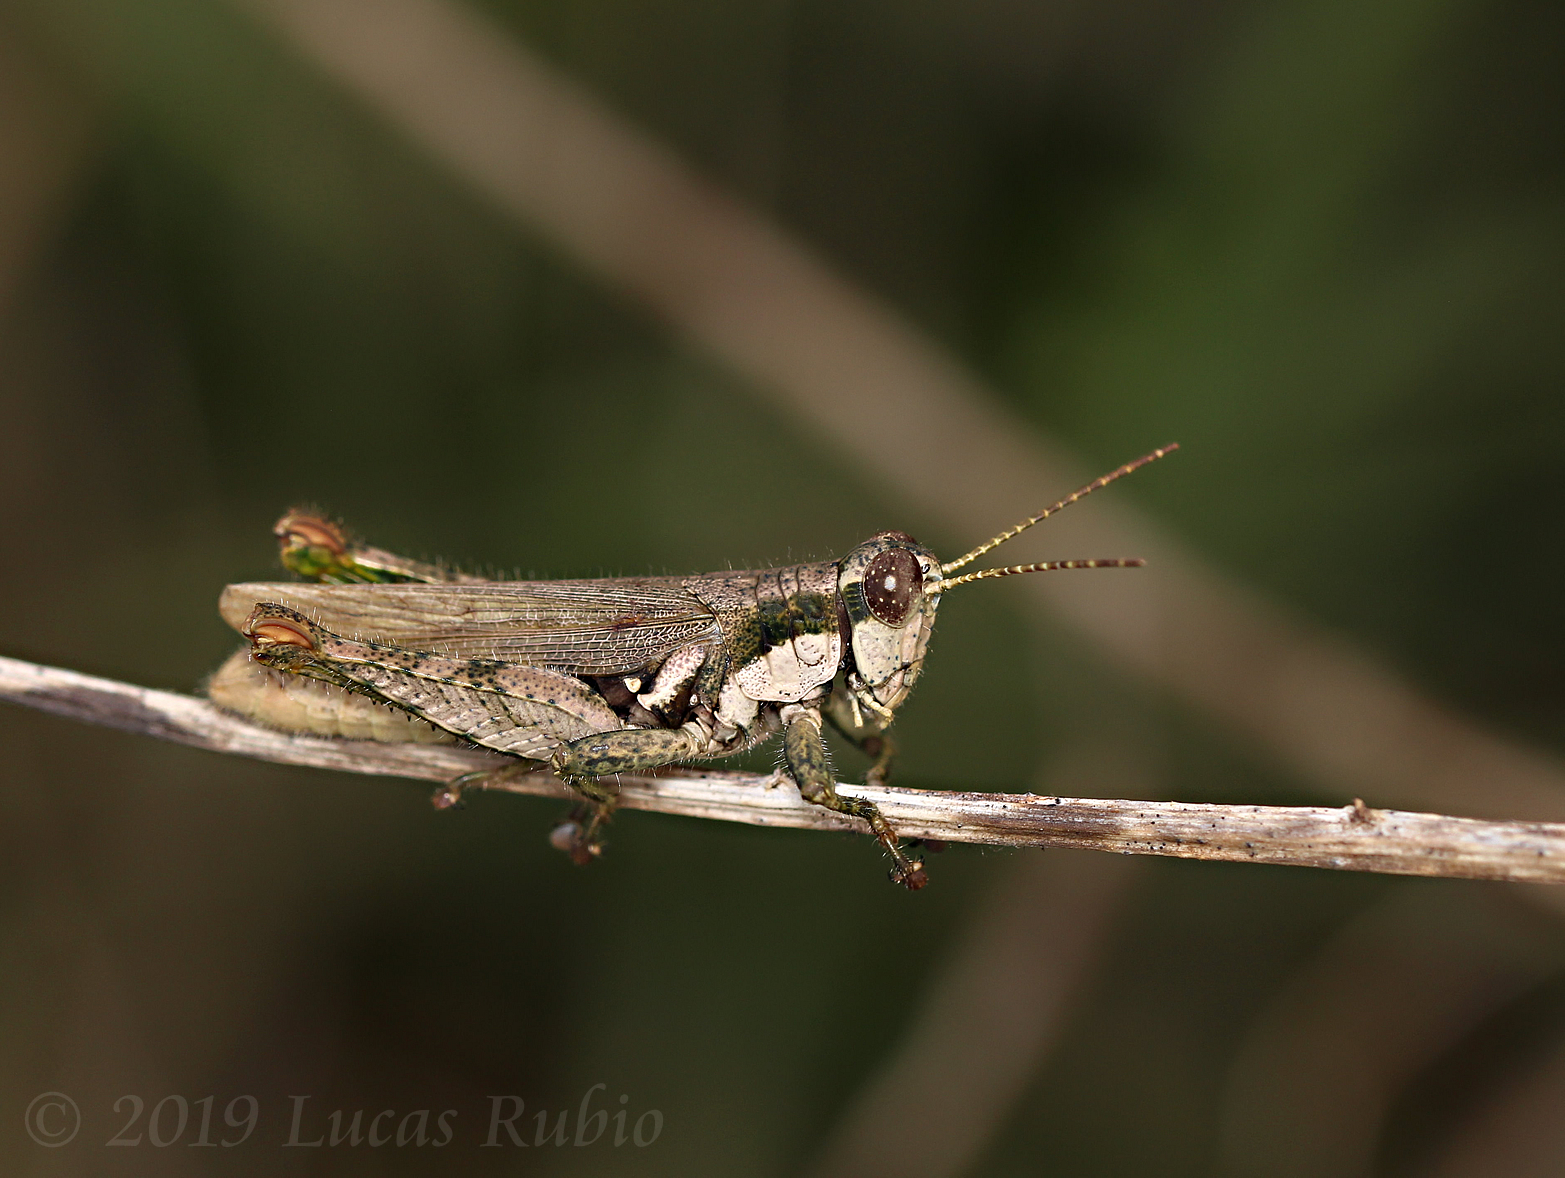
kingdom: Animalia
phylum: Arthropoda
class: Insecta
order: Orthoptera
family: Acrididae
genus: Ronderosia
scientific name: Ronderosia bergii
